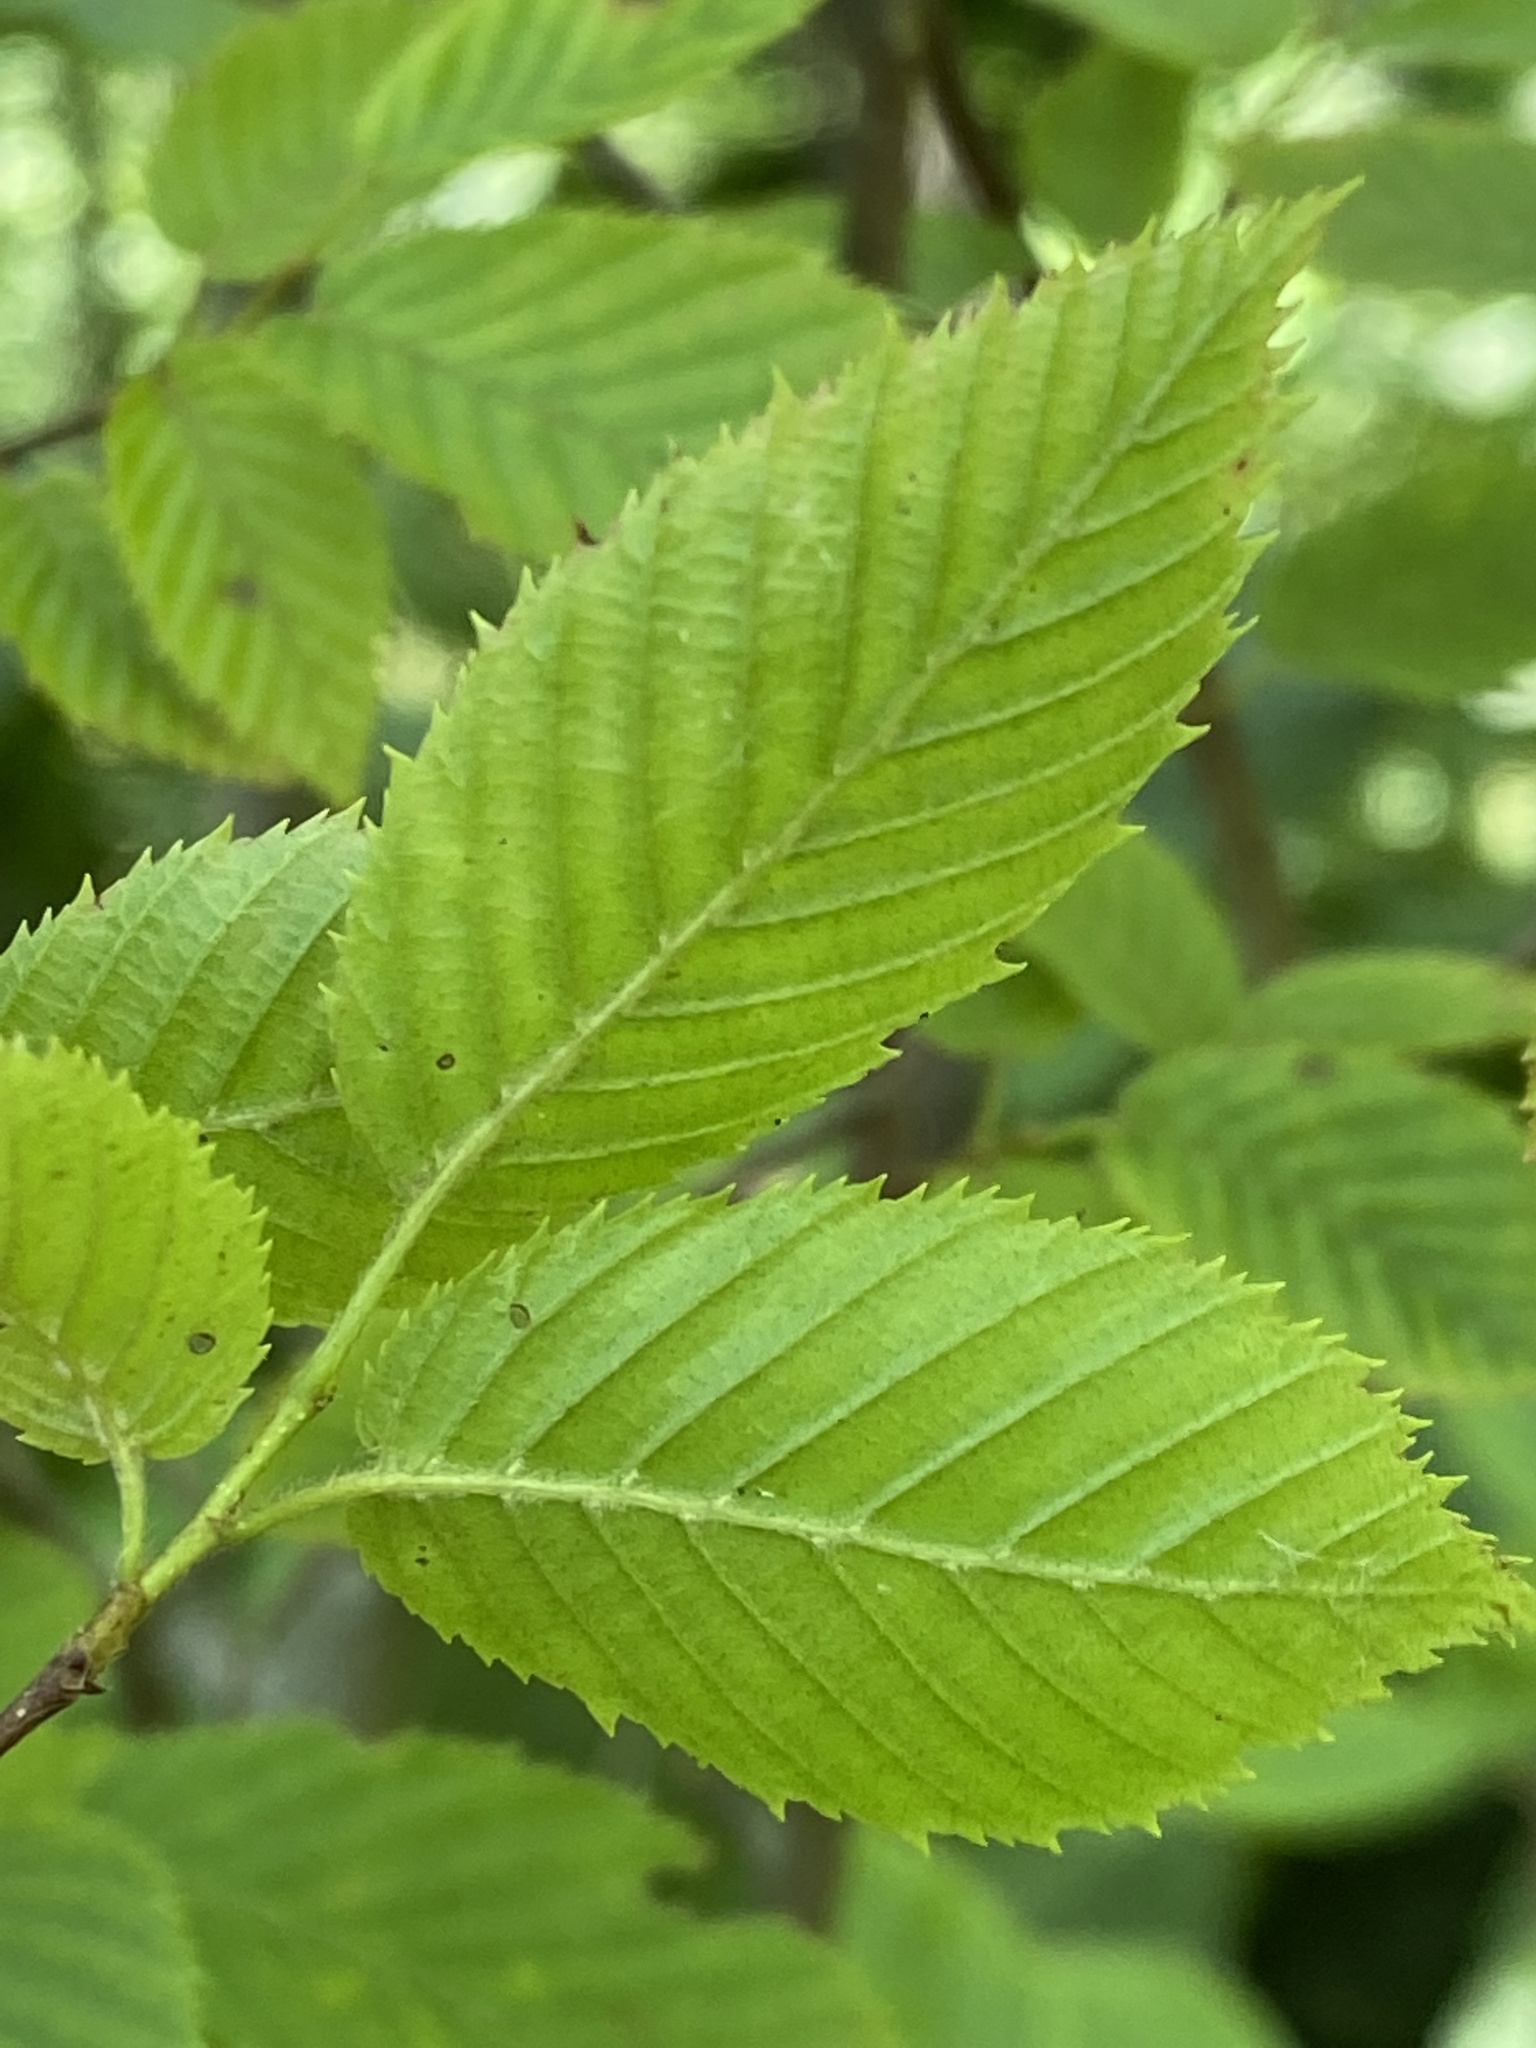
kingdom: Plantae
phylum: Tracheophyta
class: Magnoliopsida
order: Fagales
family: Betulaceae
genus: Carpinus
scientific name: Carpinus caroliniana
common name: American hornbeam
